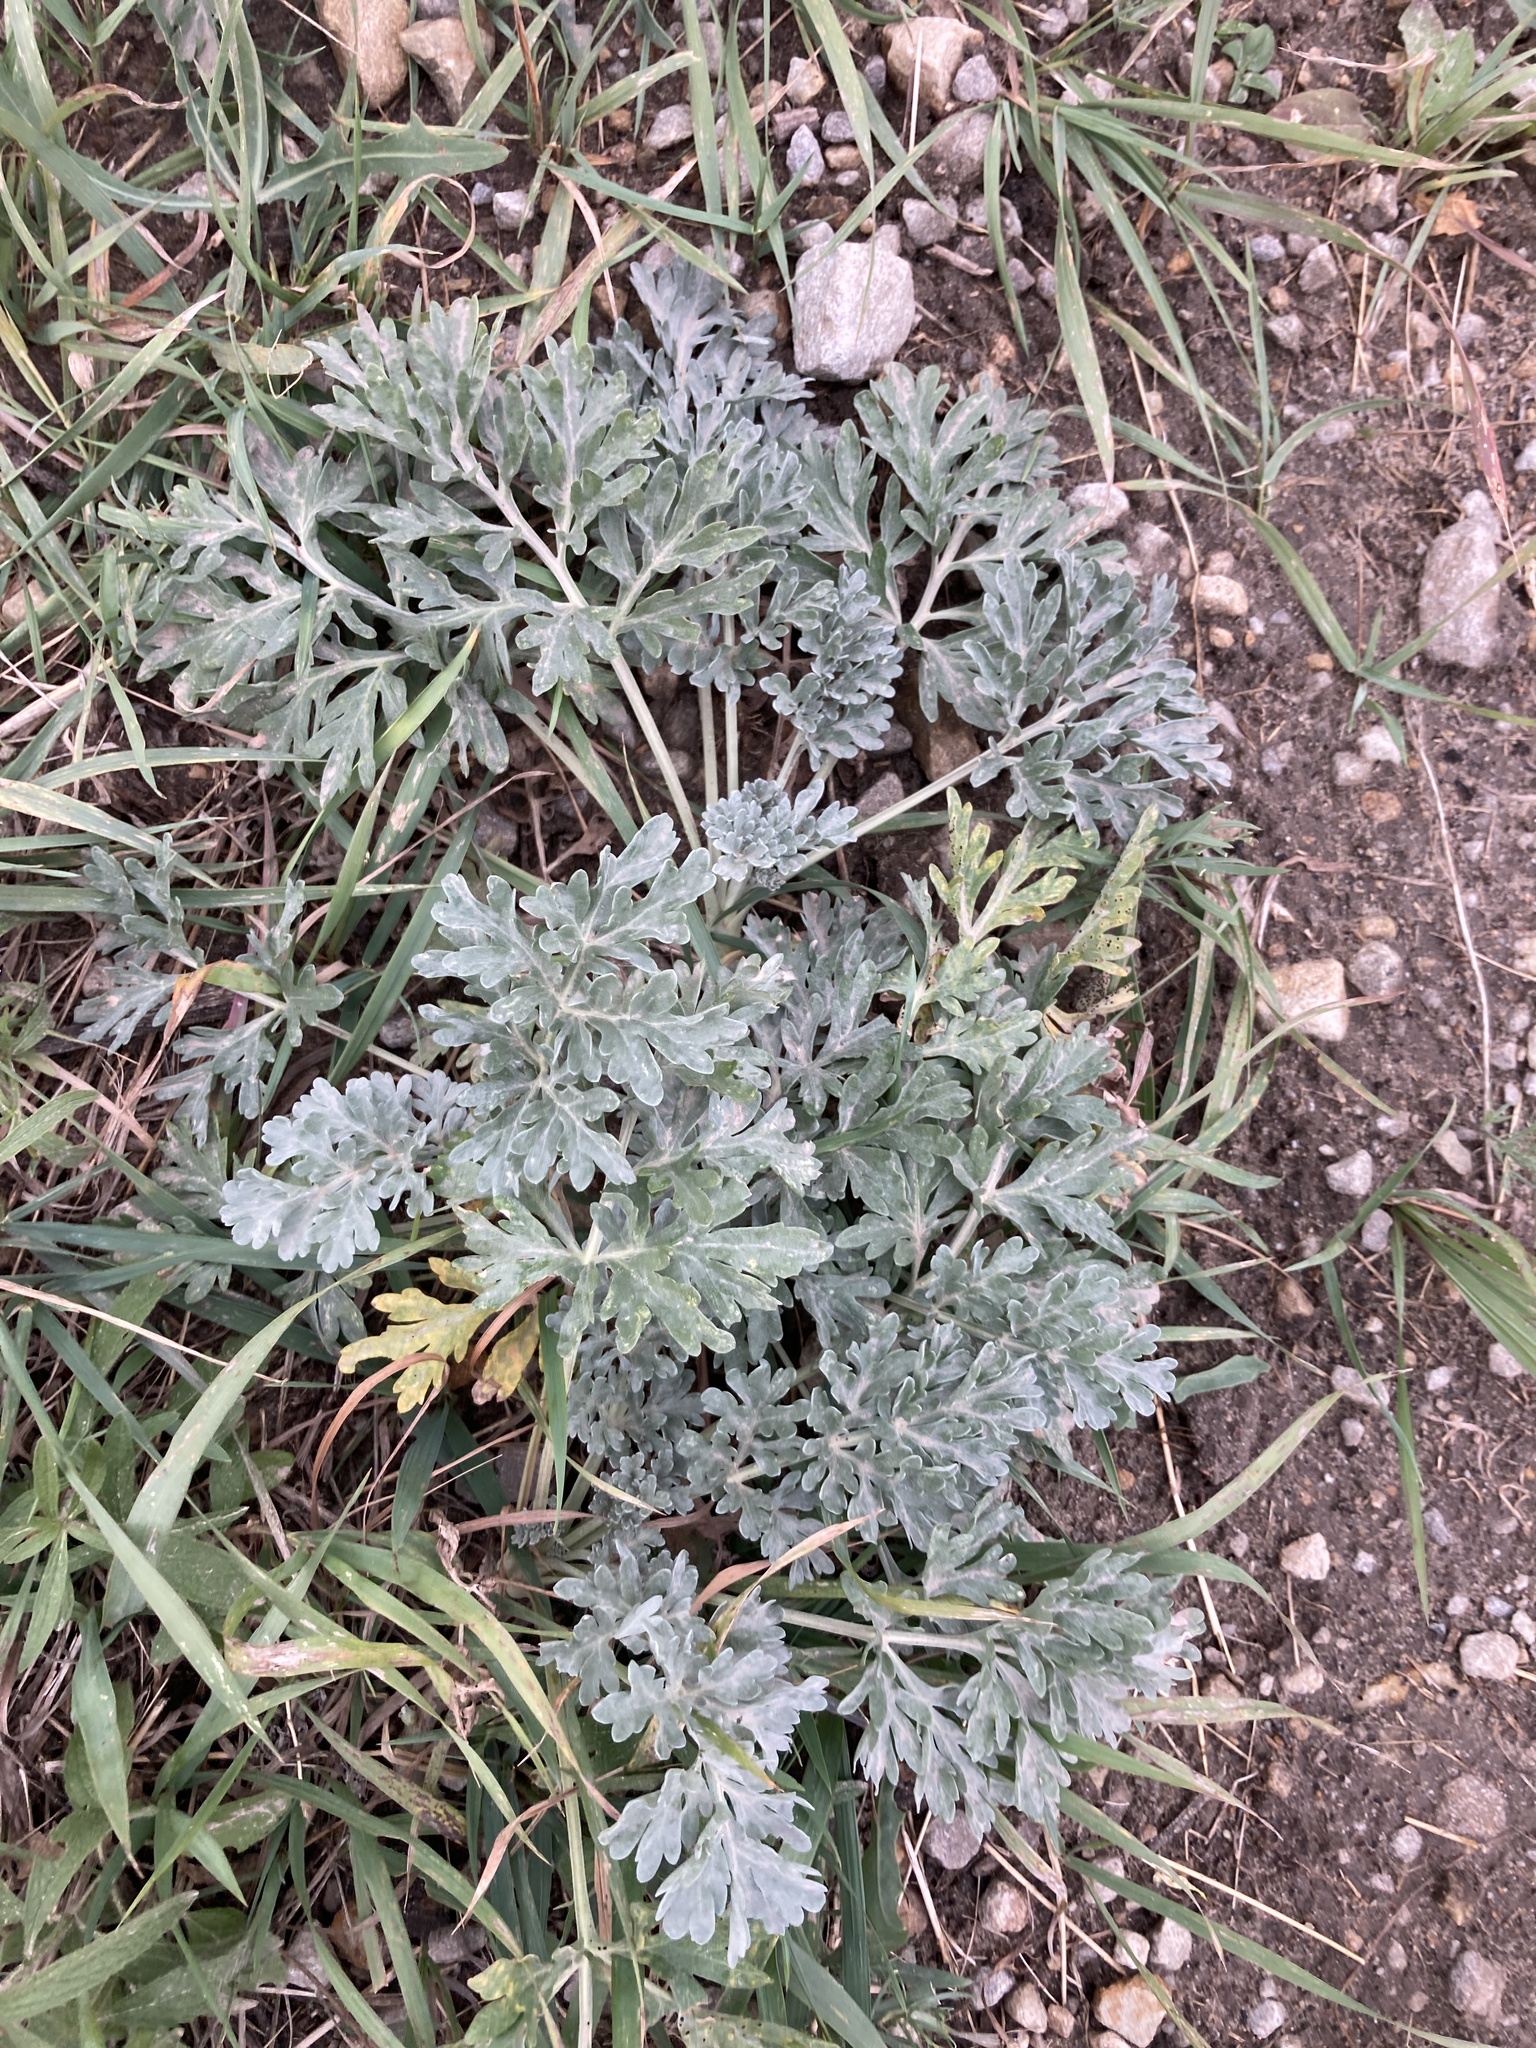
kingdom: Plantae
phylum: Tracheophyta
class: Magnoliopsida
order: Asterales
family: Asteraceae
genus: Artemisia
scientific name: Artemisia absinthium
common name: Wormwood
